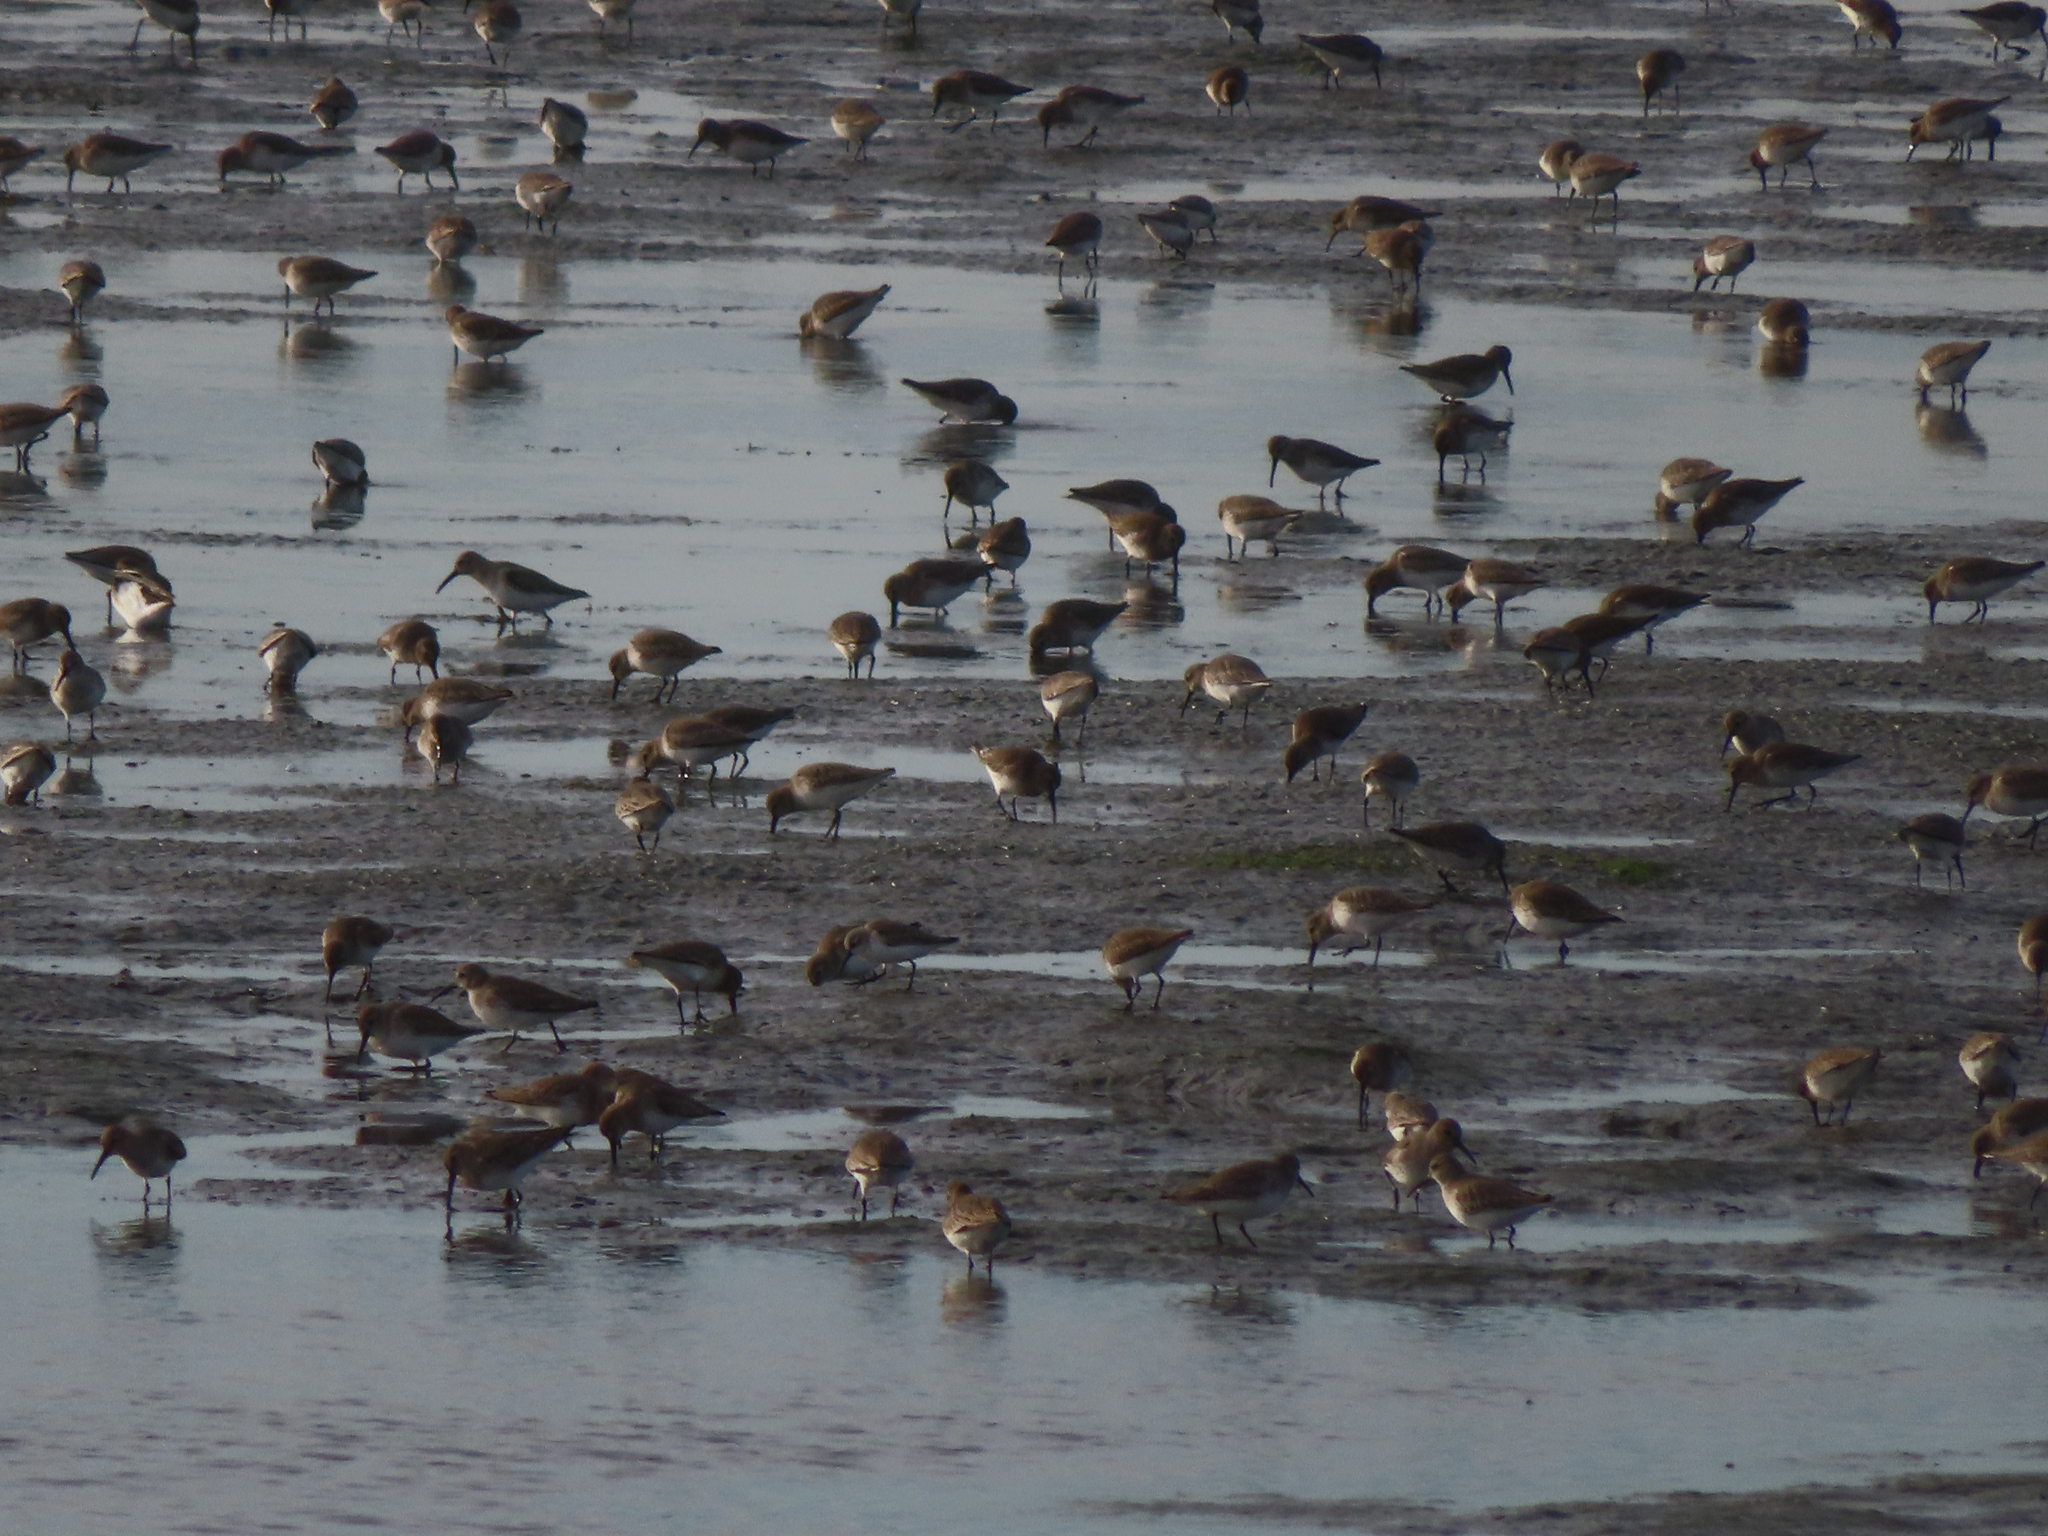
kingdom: Animalia
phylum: Chordata
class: Aves
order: Charadriiformes
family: Scolopacidae
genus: Calidris
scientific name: Calidris alpina
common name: Dunlin
